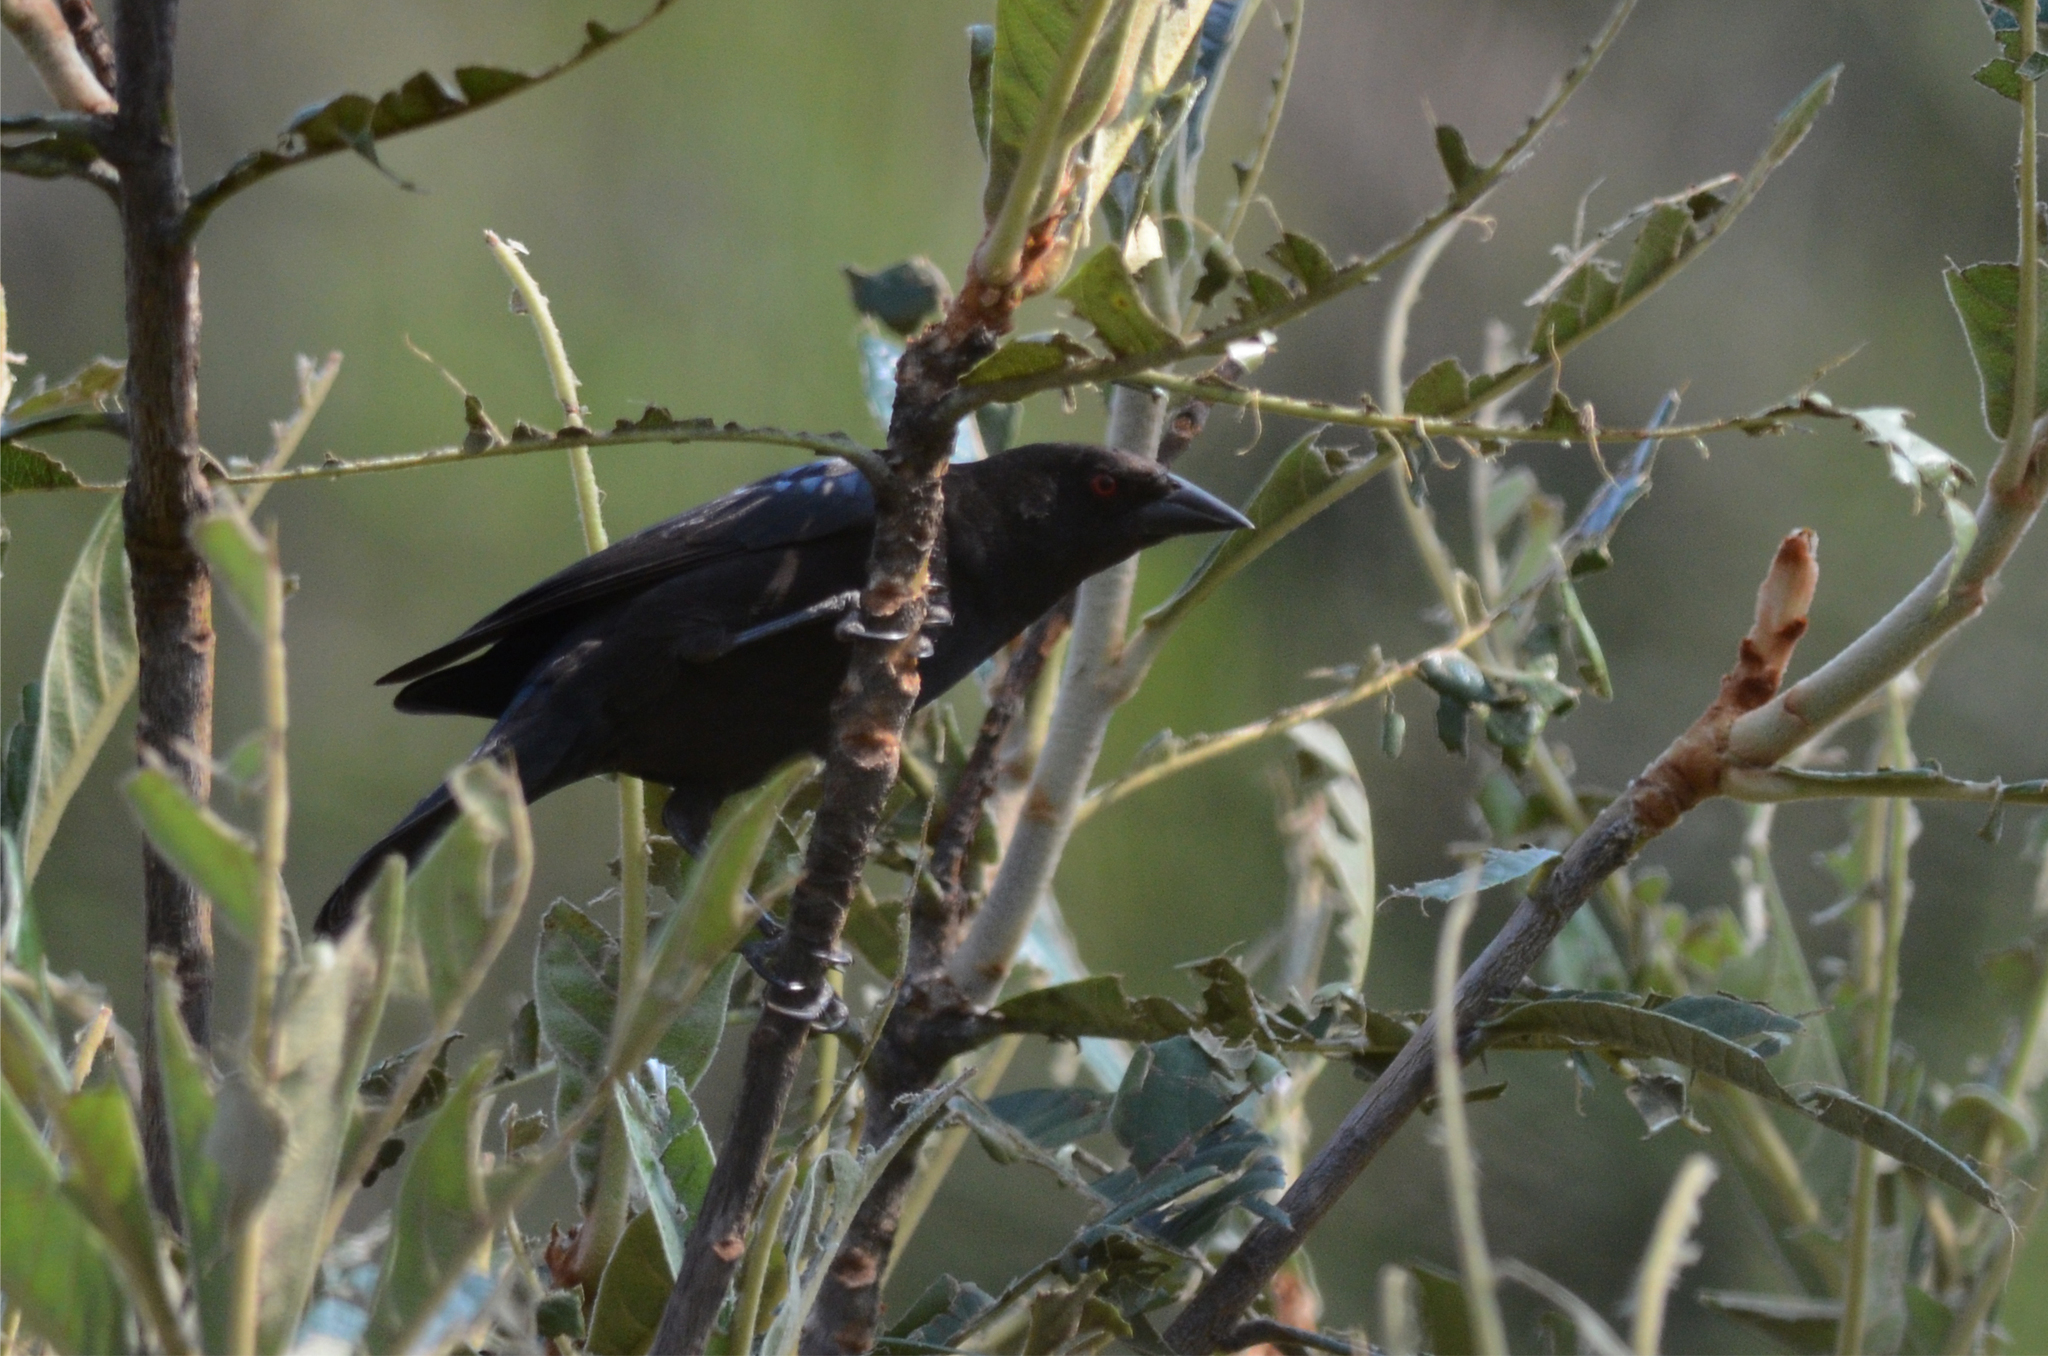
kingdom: Animalia
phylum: Chordata
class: Aves
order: Passeriformes
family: Icteridae
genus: Molothrus
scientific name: Molothrus aeneus
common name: Bronzed cowbird
